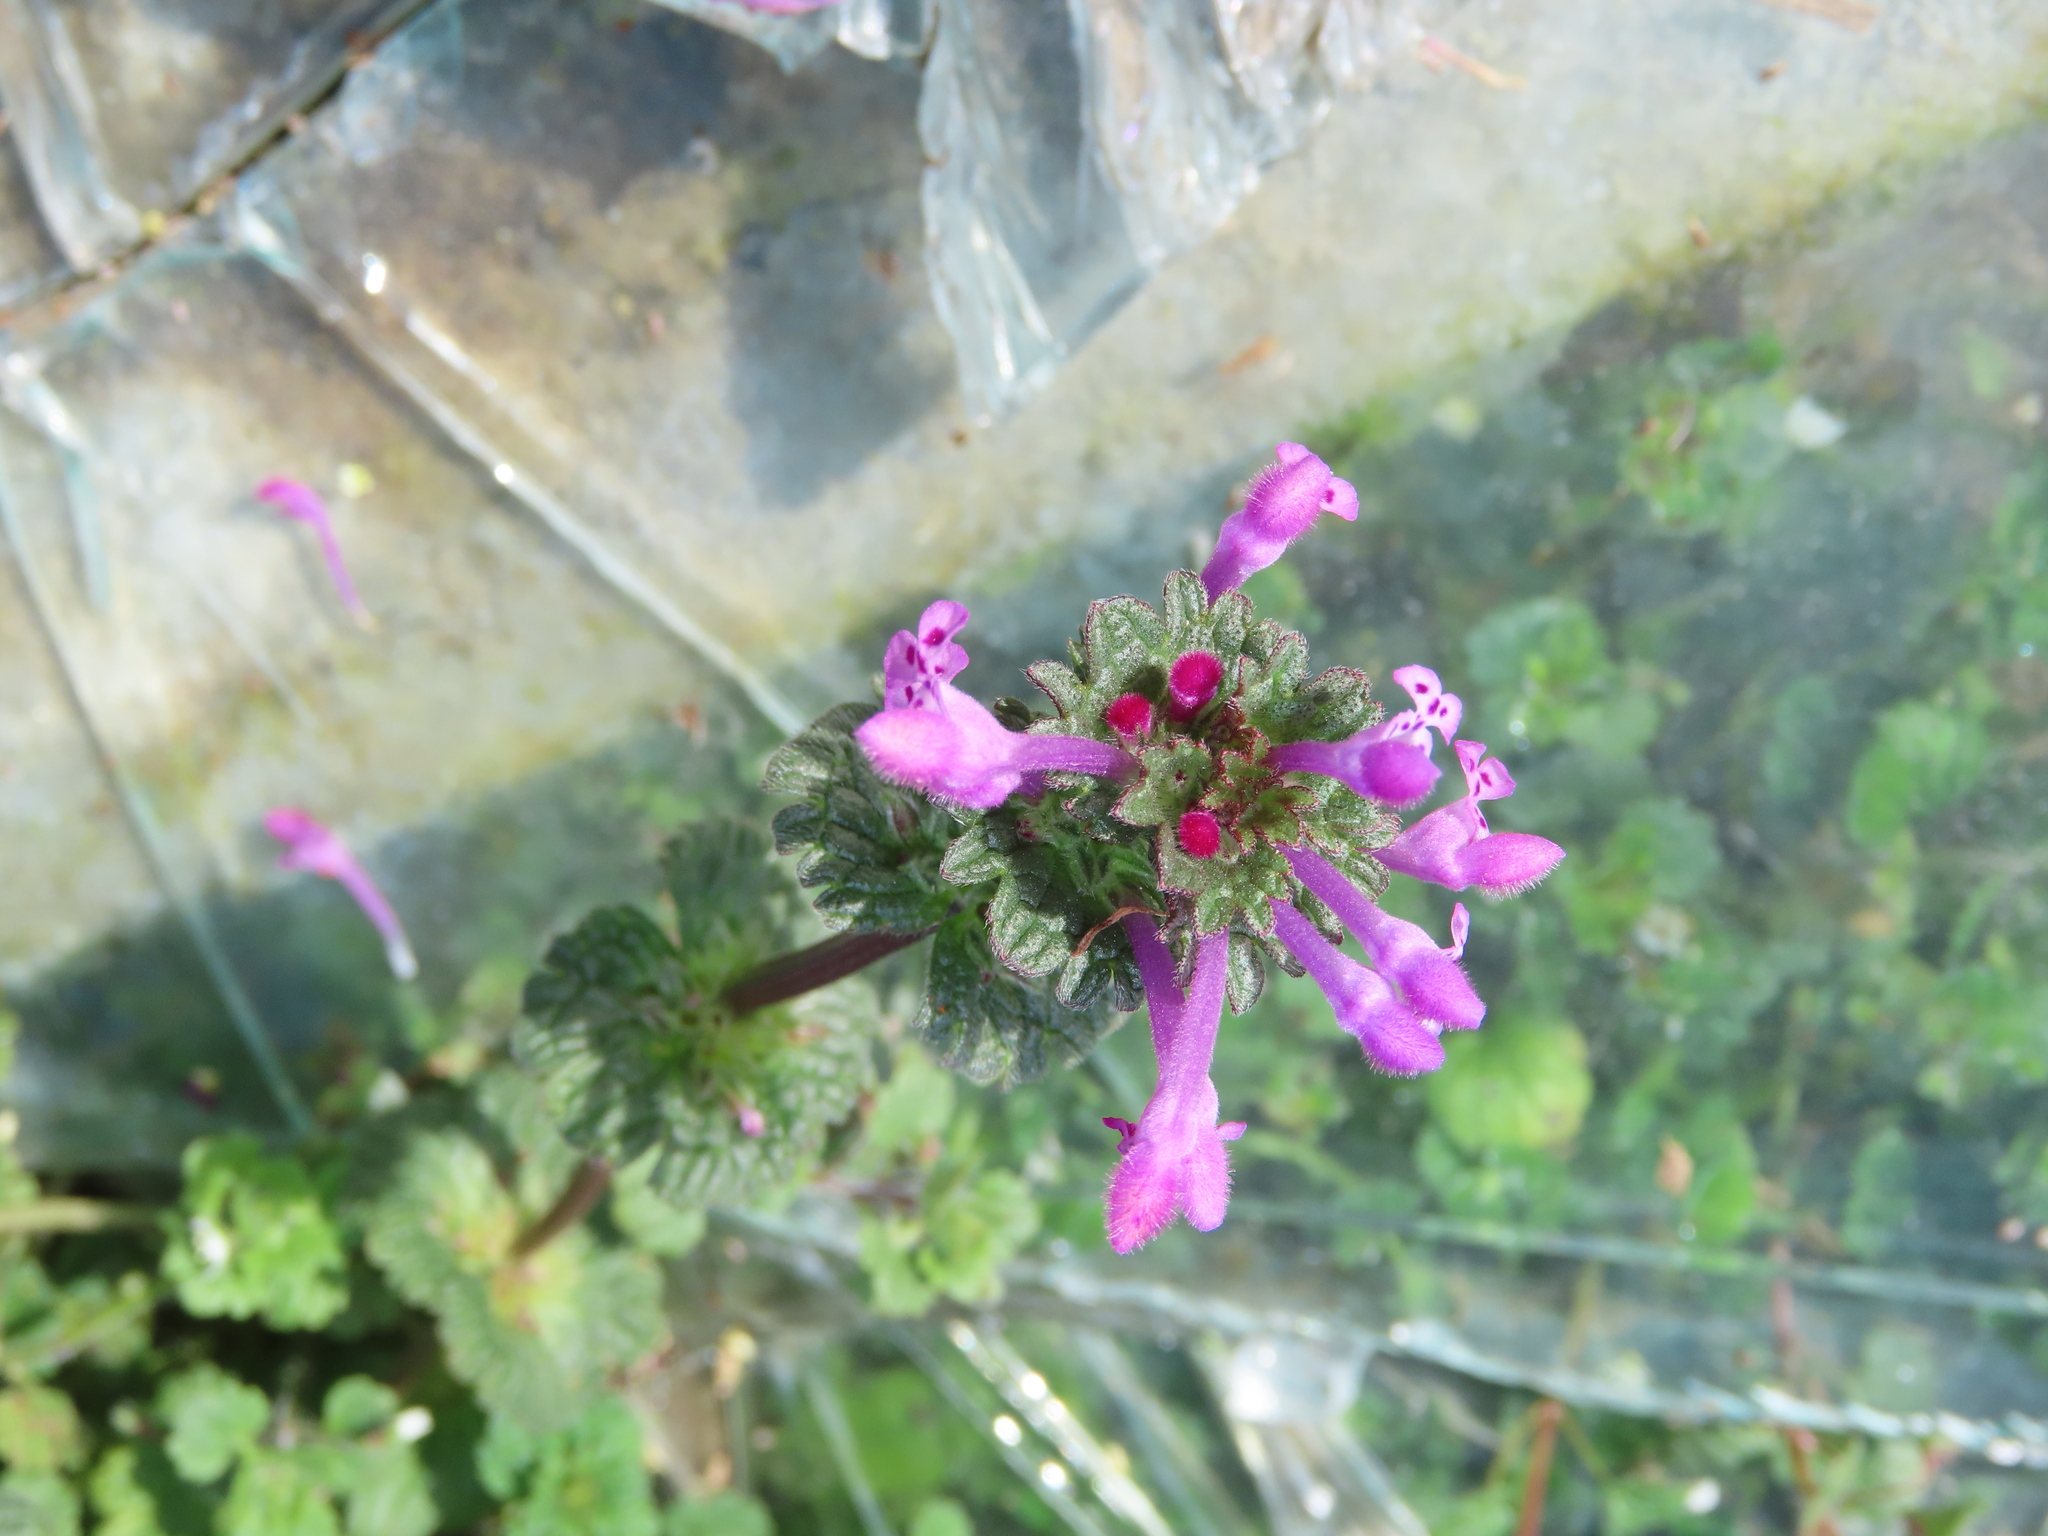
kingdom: Plantae
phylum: Tracheophyta
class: Magnoliopsida
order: Lamiales
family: Lamiaceae
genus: Lamium
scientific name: Lamium amplexicaule
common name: Henbit dead-nettle
